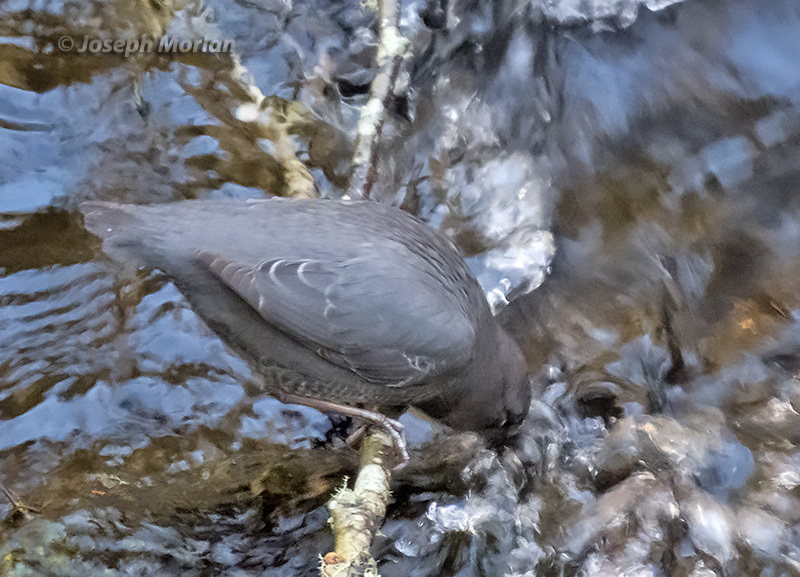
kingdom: Animalia
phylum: Chordata
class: Aves
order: Passeriformes
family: Cinclidae
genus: Cinclus
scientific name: Cinclus mexicanus
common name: American dipper
